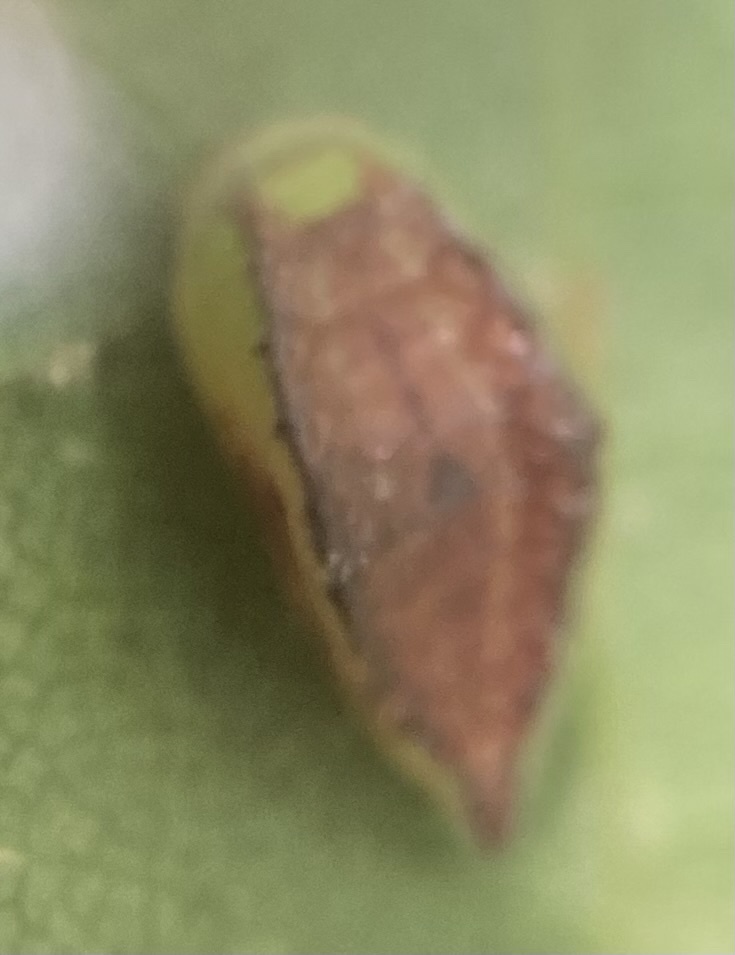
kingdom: Animalia
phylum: Arthropoda
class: Insecta
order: Lepidoptera
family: Limacodidae
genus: Prolimacodes
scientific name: Prolimacodes badia
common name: Skiff moth
